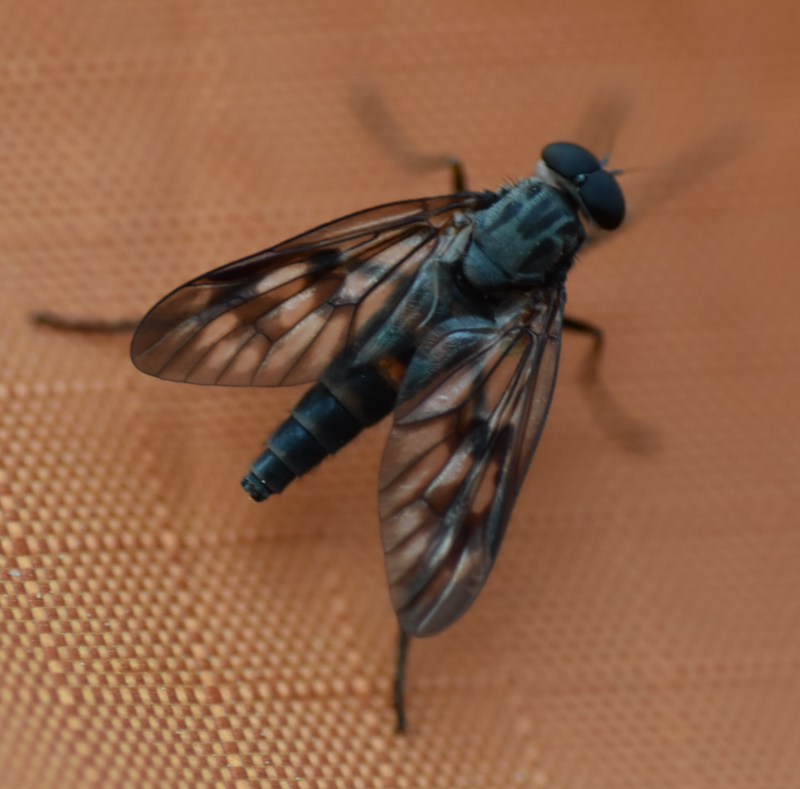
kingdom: Animalia
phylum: Arthropoda
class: Insecta
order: Diptera
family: Rhagionidae
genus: Rhagio
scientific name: Rhagio mystaceus
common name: Common snipe fly
